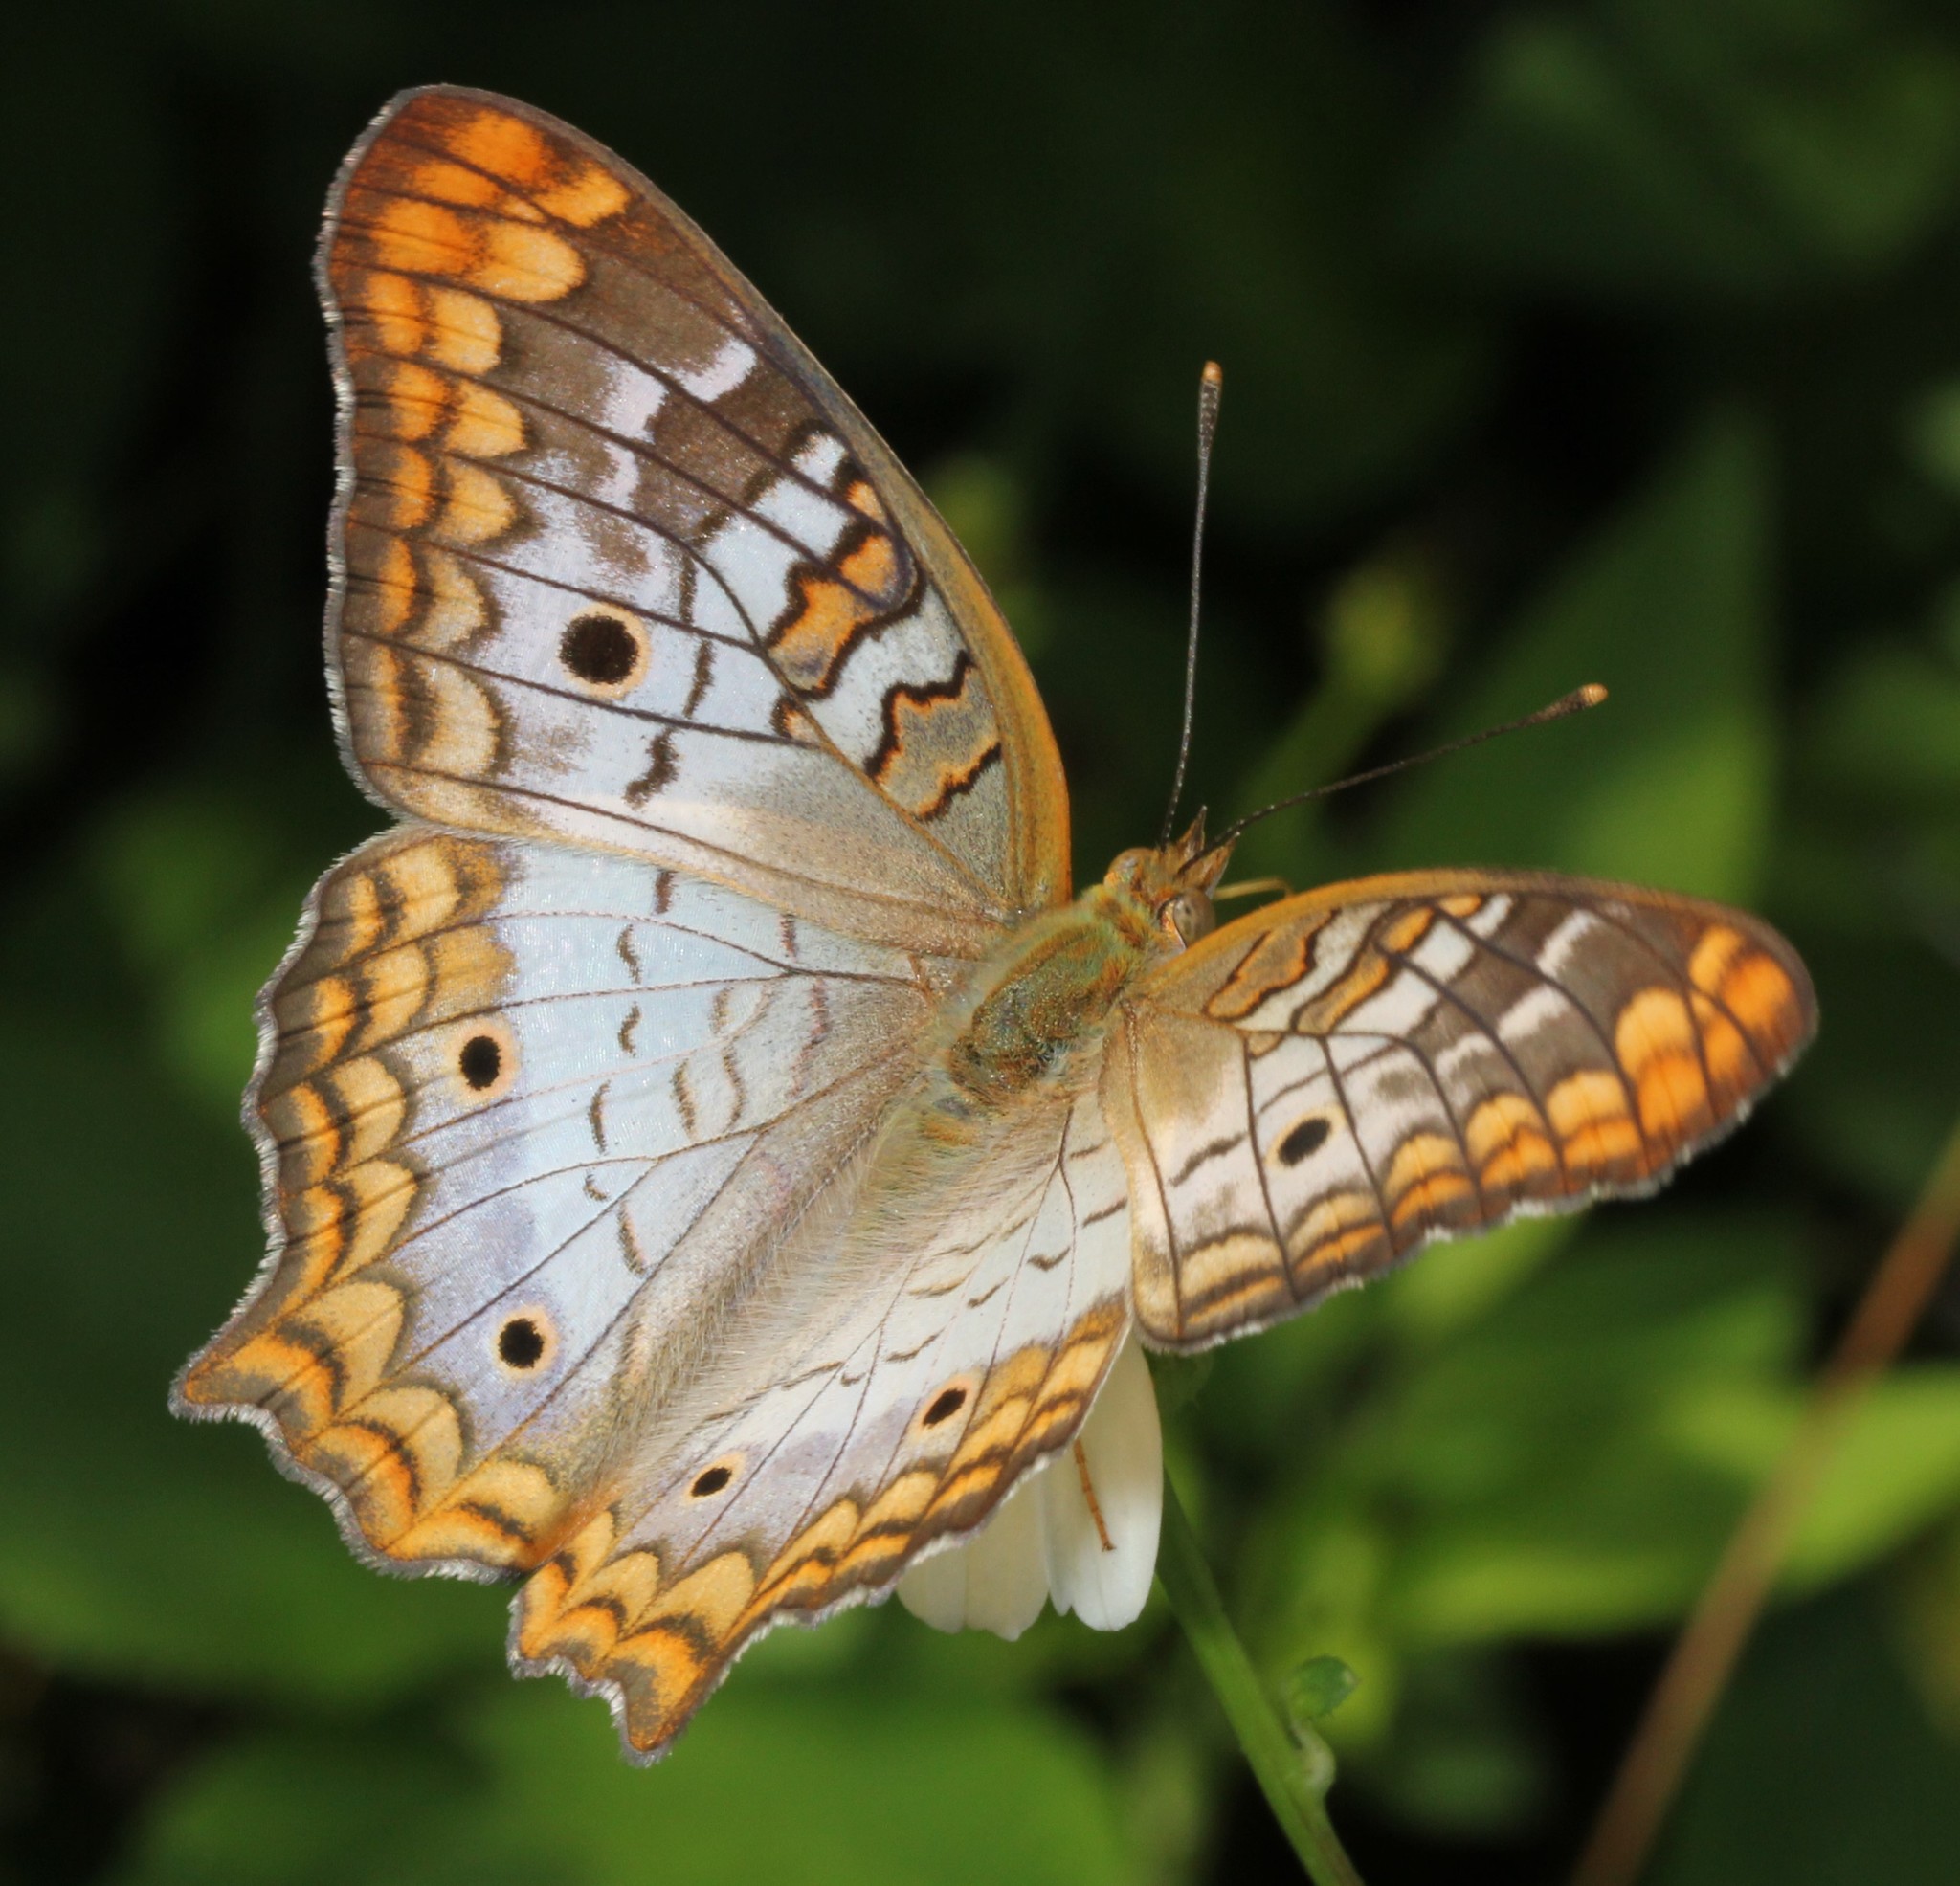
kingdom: Animalia
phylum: Arthropoda
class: Insecta
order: Lepidoptera
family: Nymphalidae
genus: Anartia
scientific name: Anartia jatrophae
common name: White peacock
